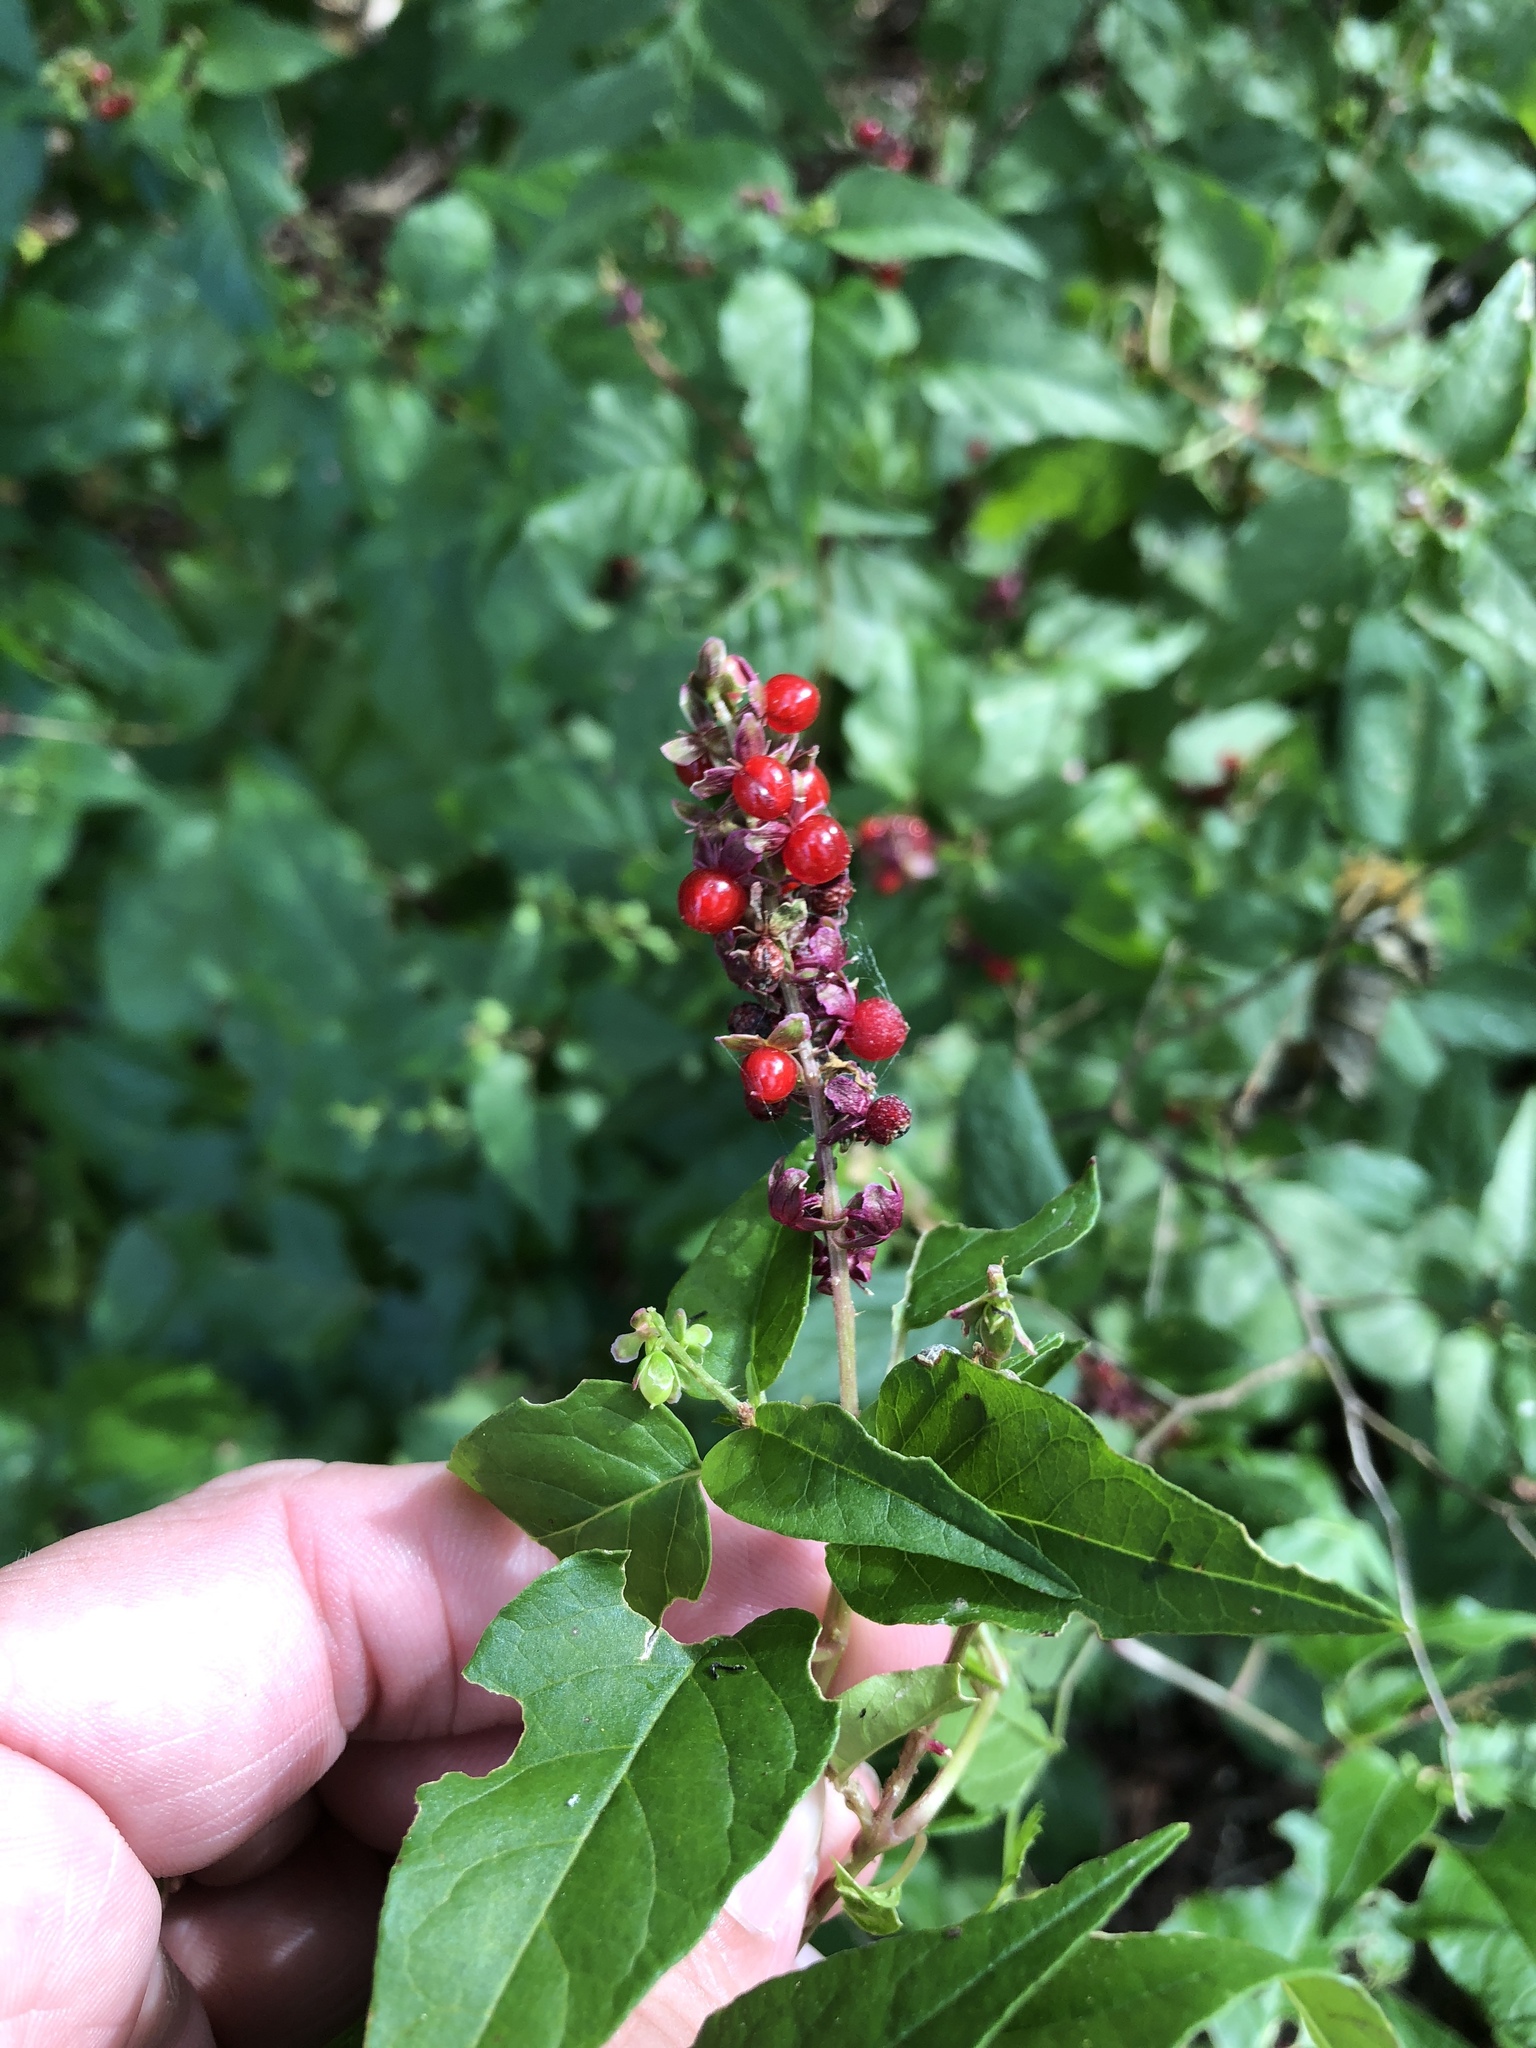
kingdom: Plantae
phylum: Tracheophyta
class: Magnoliopsida
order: Caryophyllales
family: Phytolaccaceae
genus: Rivina
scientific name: Rivina humilis
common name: Rougeplant
